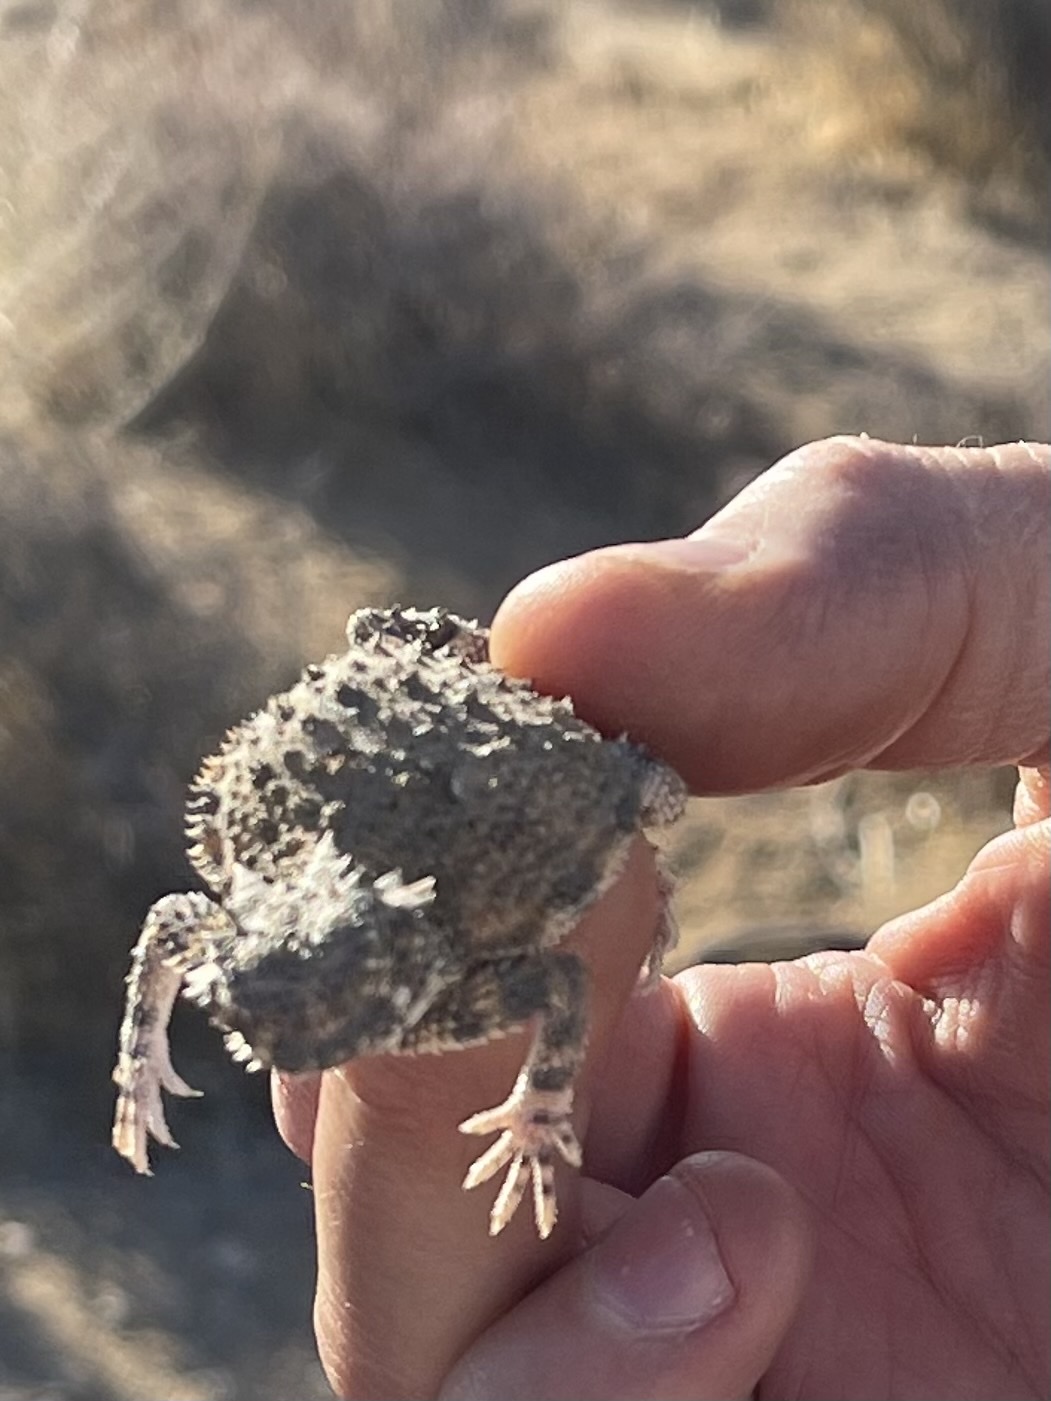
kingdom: Animalia
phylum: Chordata
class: Squamata
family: Phrynosomatidae
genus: Phrynosoma
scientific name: Phrynosoma platyrhinos
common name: Desert horned lizard
